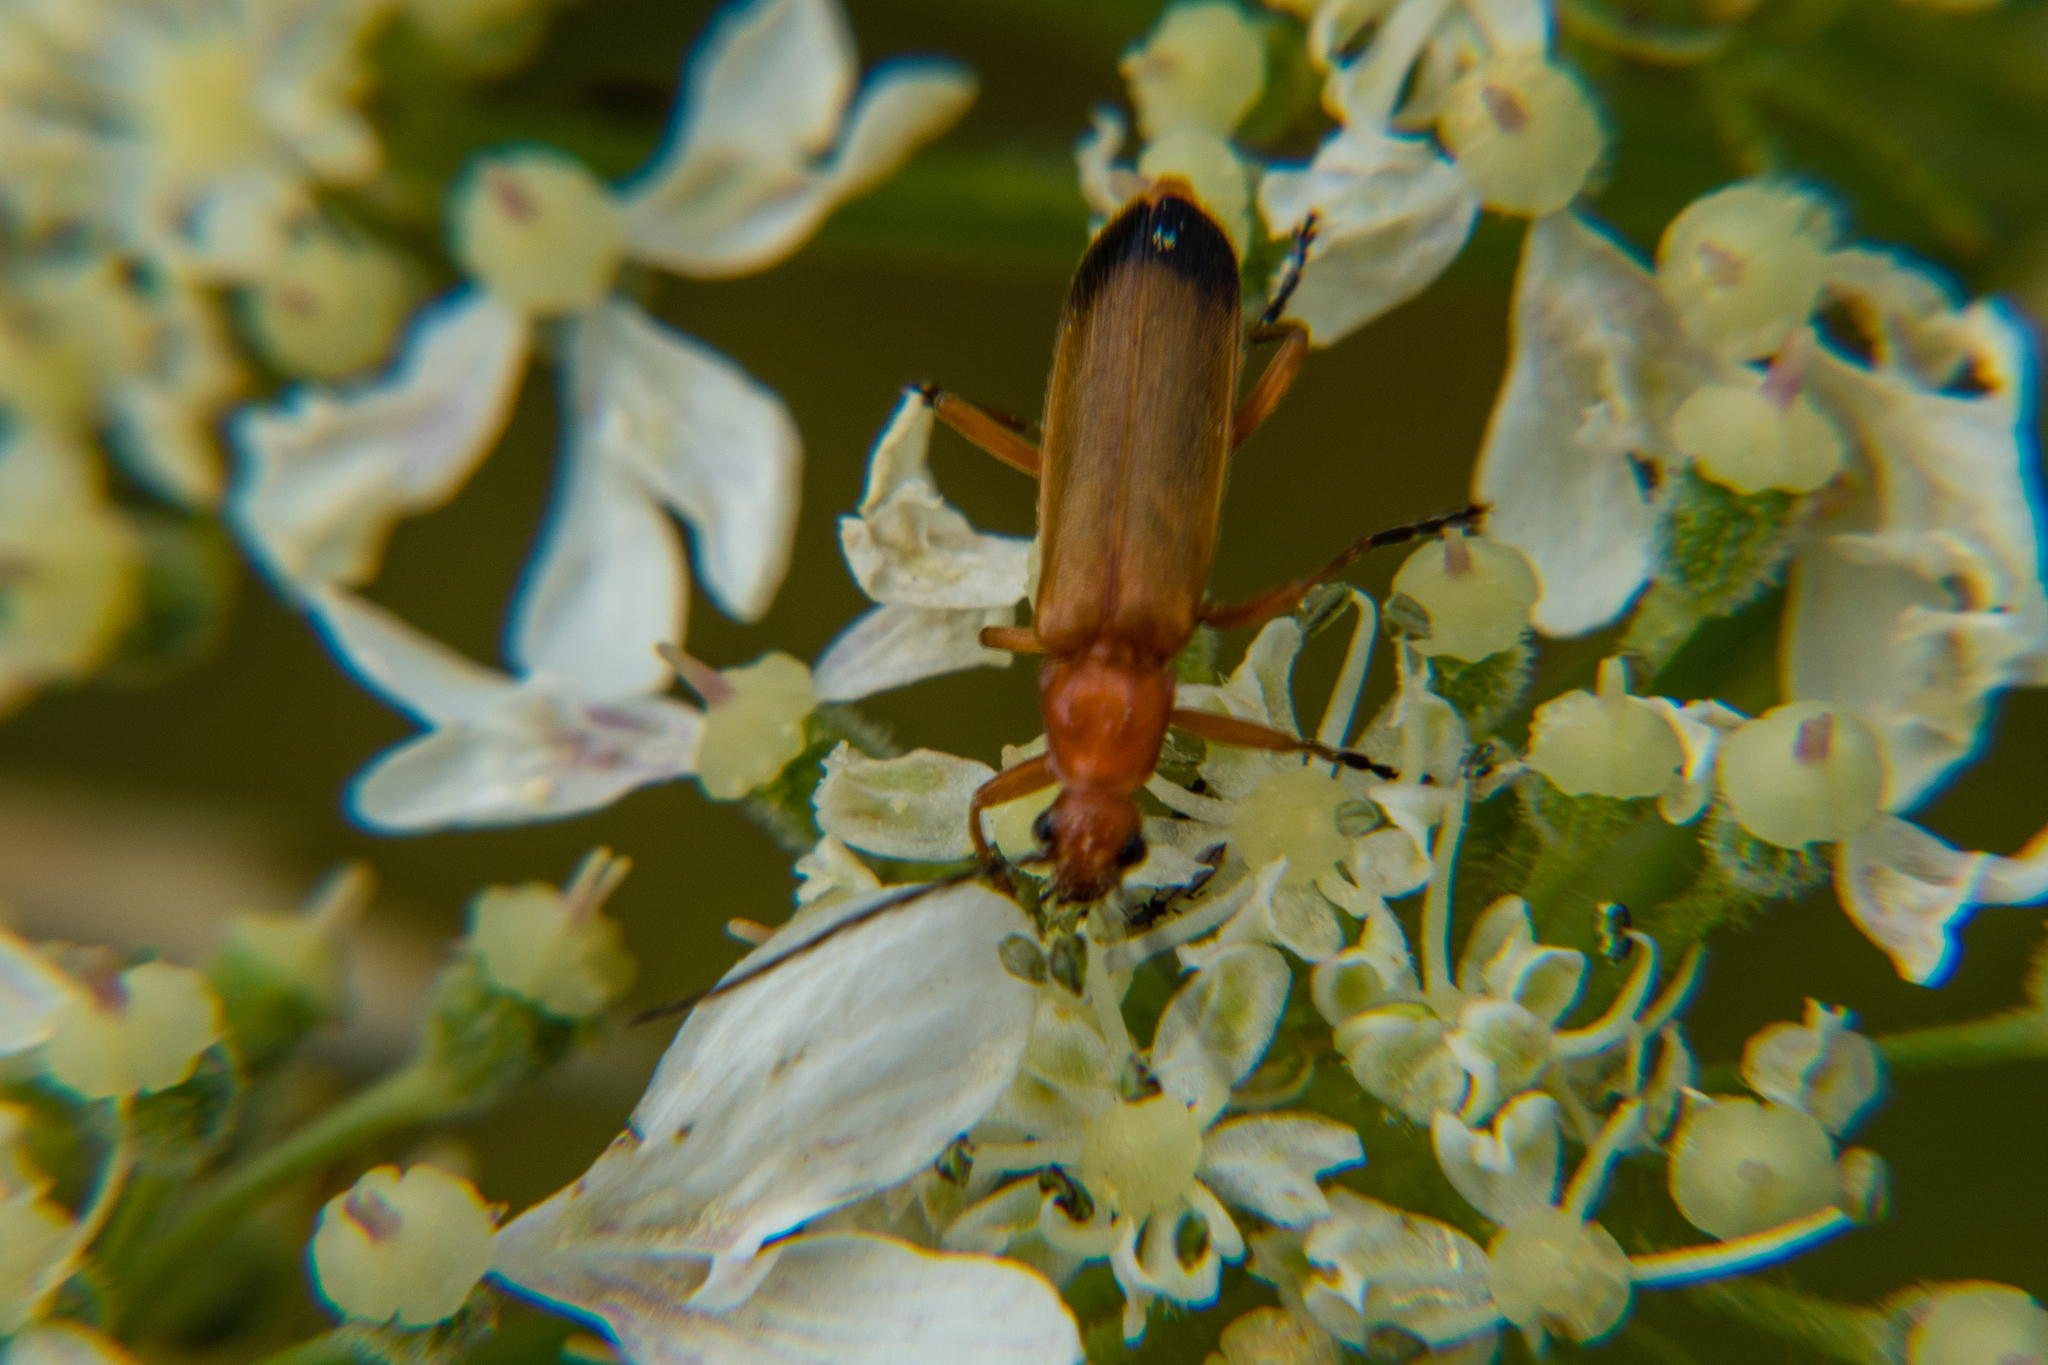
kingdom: Animalia
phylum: Arthropoda
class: Insecta
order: Coleoptera
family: Cantharidae
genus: Rhagonycha
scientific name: Rhagonycha fulva
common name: Common red soldier beetle
